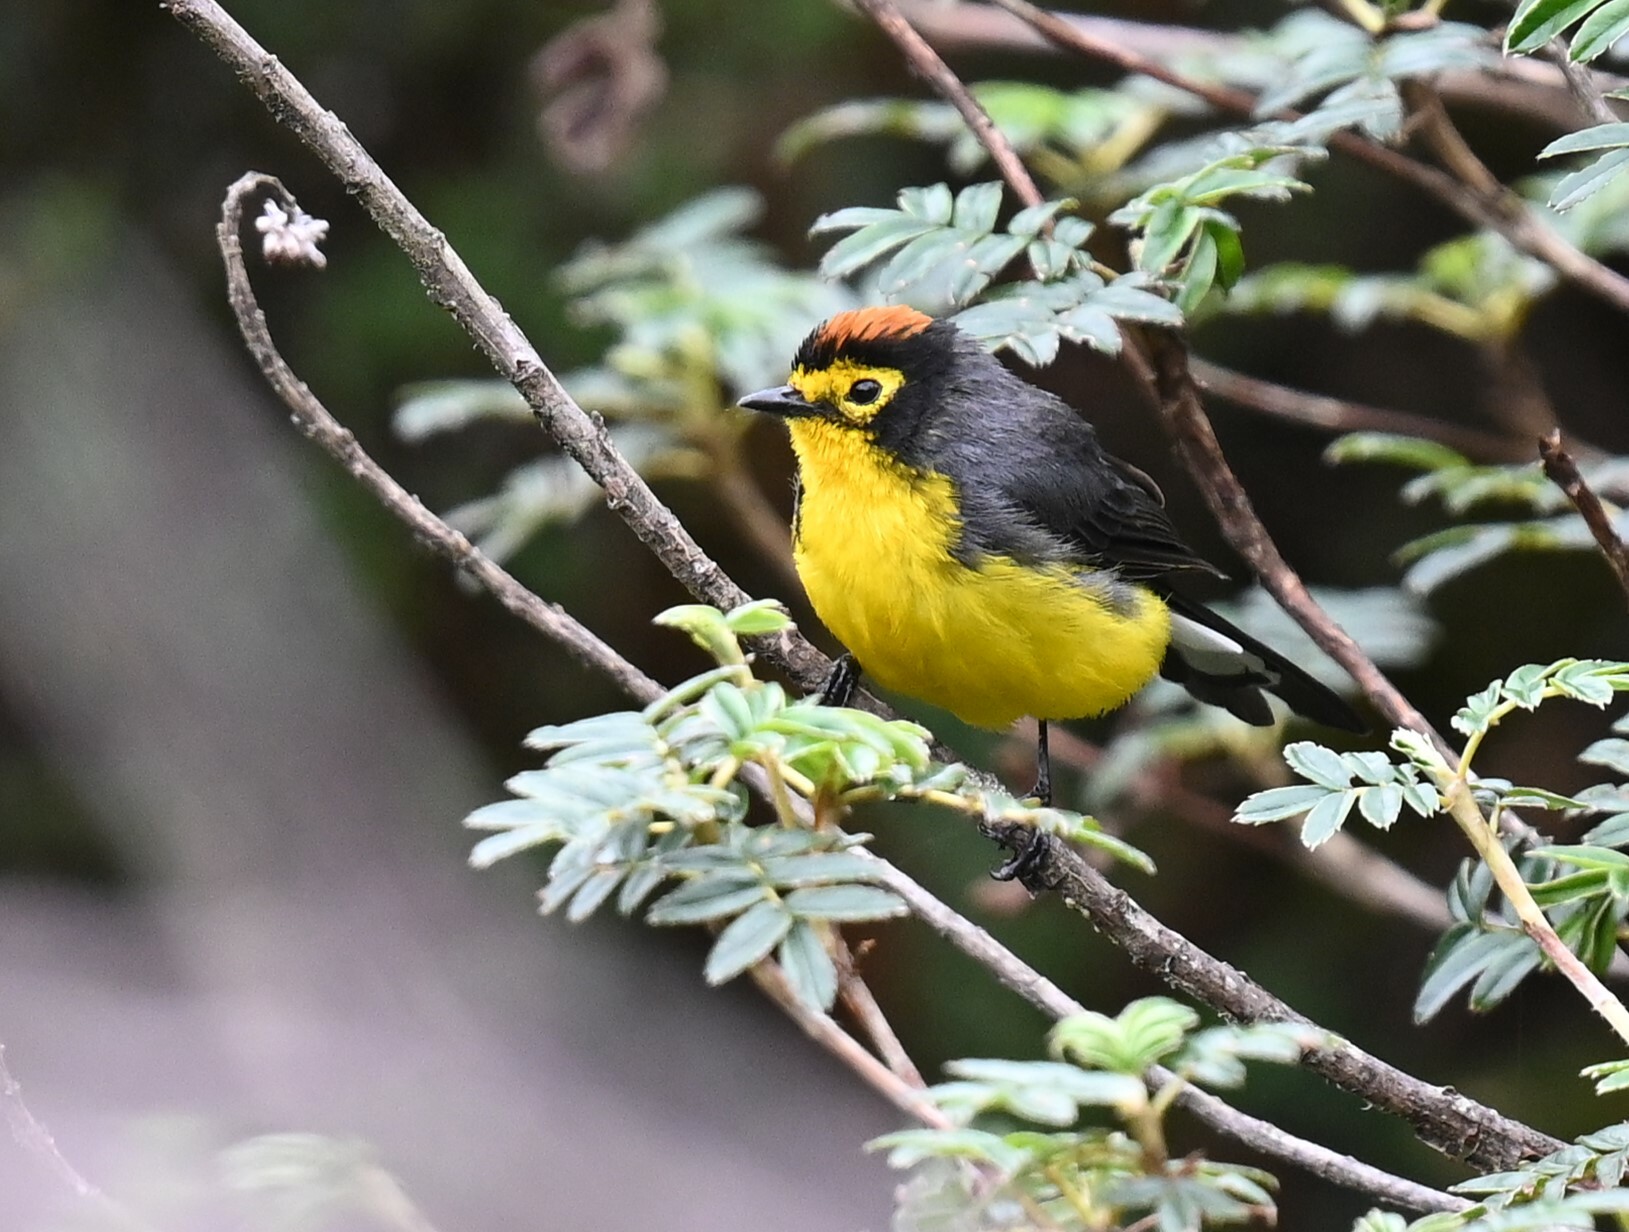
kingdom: Animalia
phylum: Chordata
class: Aves
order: Passeriformes
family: Parulidae
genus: Myioborus
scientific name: Myioborus melanocephalus
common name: Spectacled whitestart
